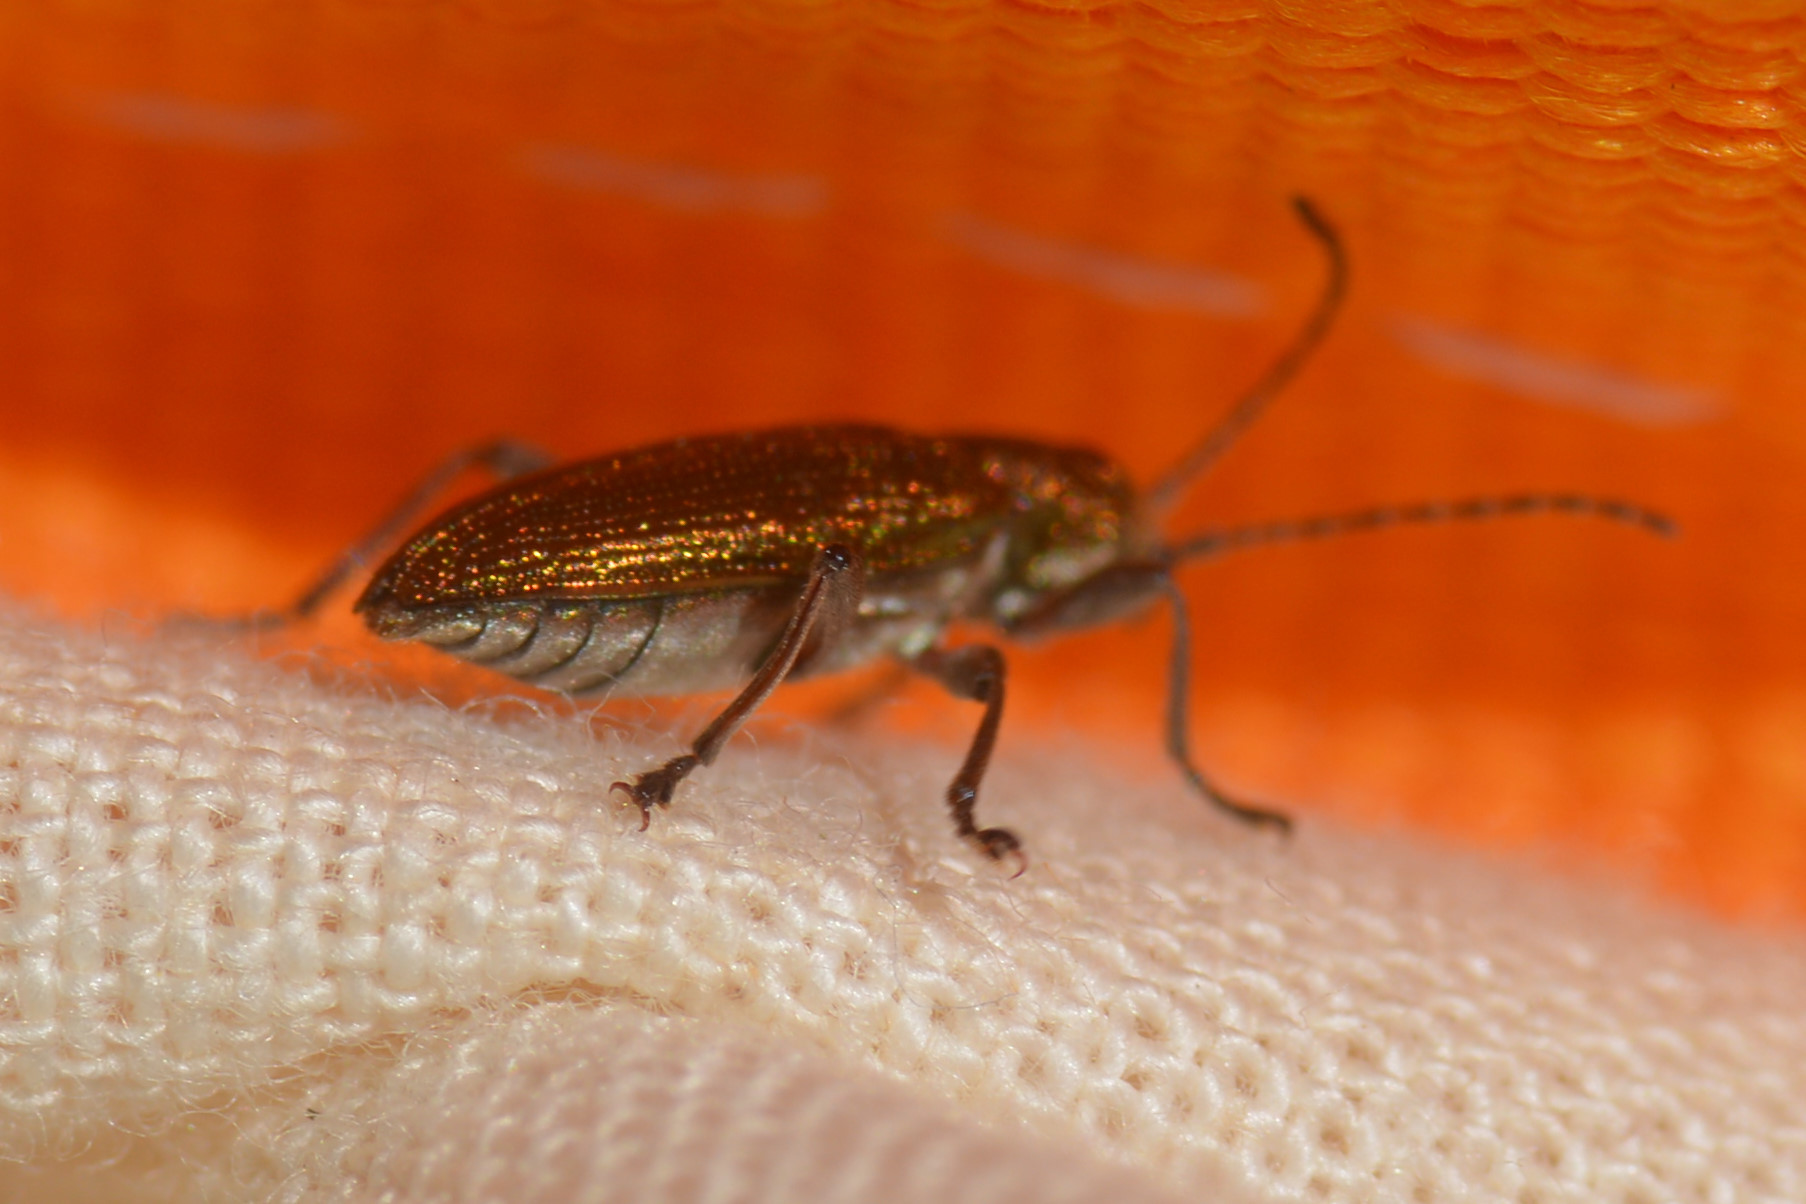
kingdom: Animalia
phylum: Arthropoda
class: Insecta
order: Coleoptera
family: Chrysomelidae
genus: Donacia
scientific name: Donacia semicuprea
